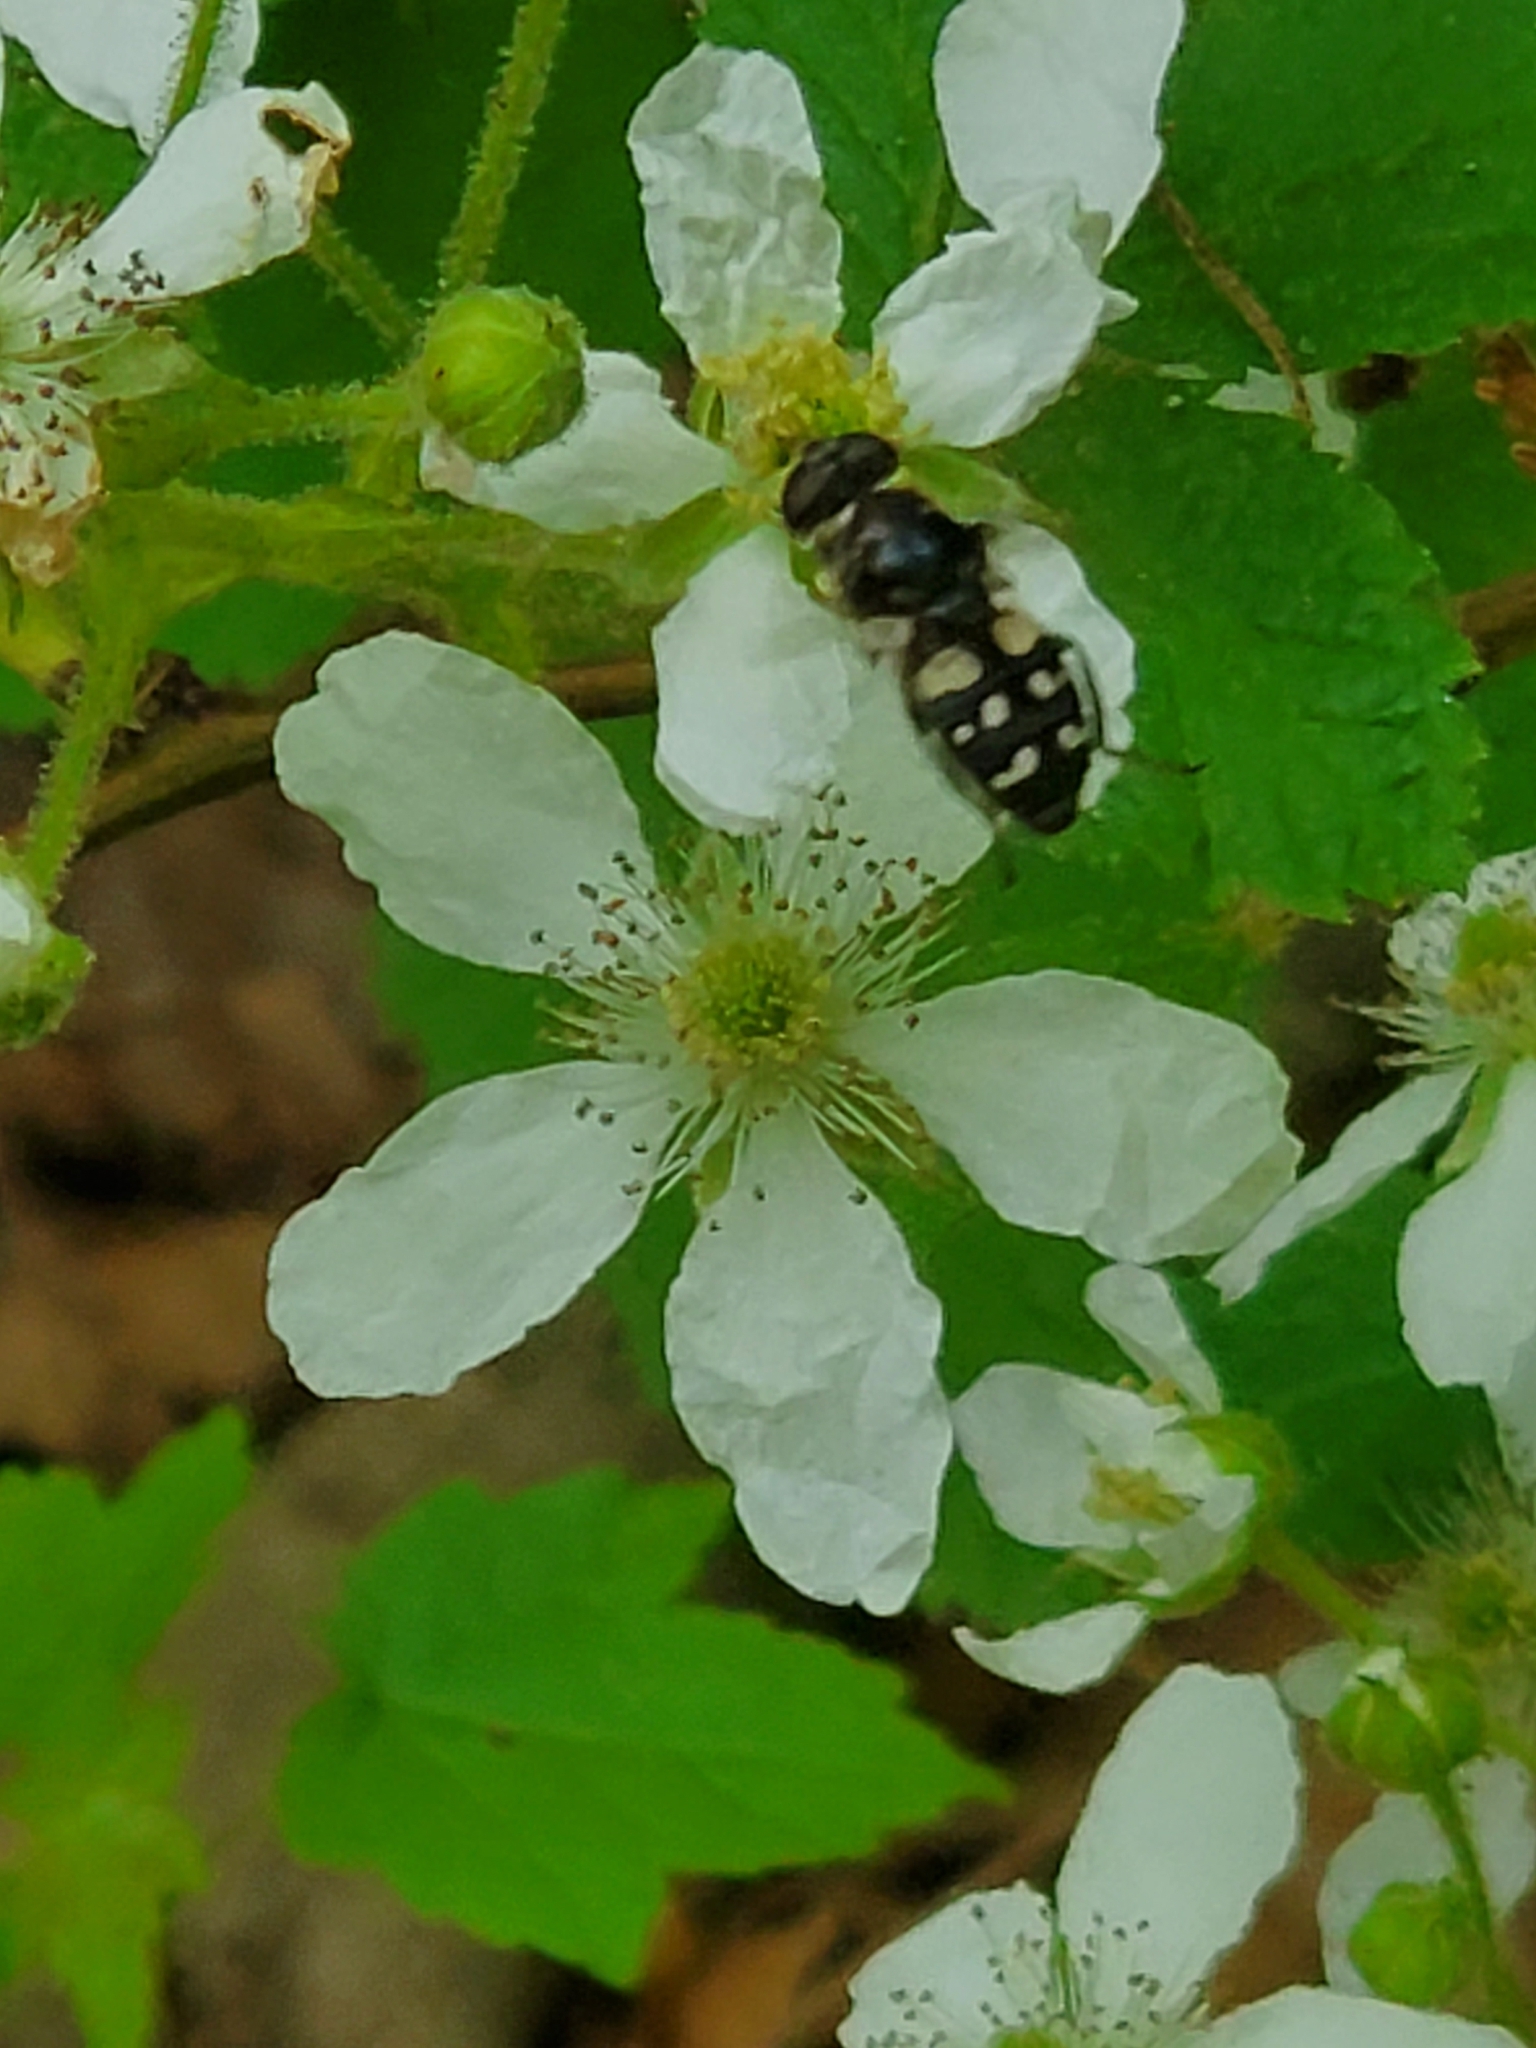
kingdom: Animalia
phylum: Arthropoda
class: Insecta
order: Diptera
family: Syrphidae
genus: Sericomyia
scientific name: Sericomyia lata
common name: White-spotted pond fly
